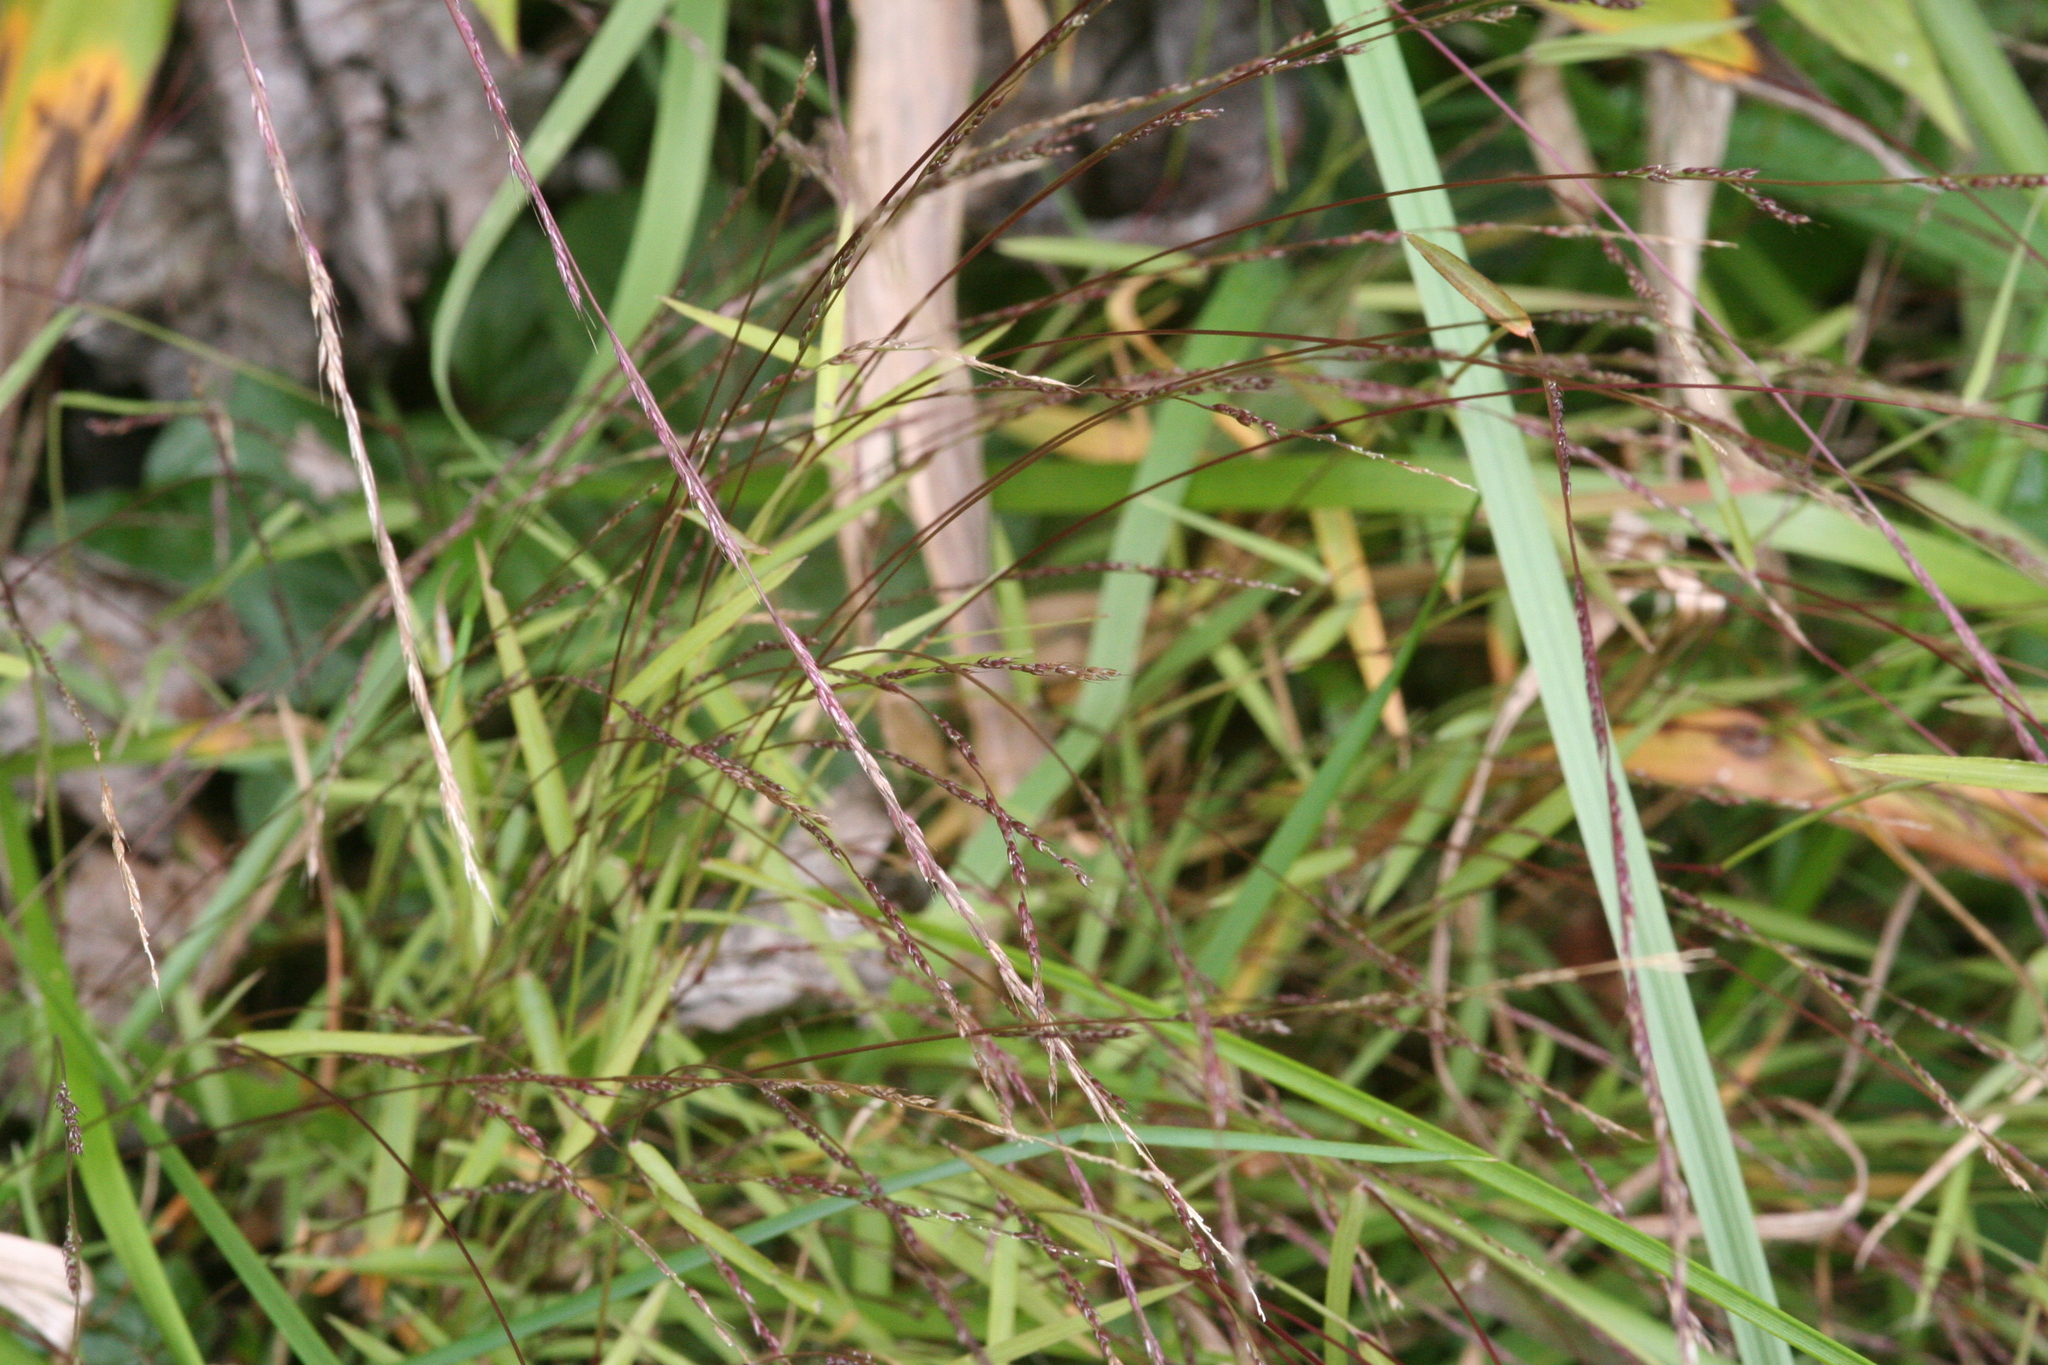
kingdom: Plantae
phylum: Tracheophyta
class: Liliopsida
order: Poales
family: Poaceae
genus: Muhlenbergia
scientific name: Muhlenbergia schreberi
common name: Nimblewill
